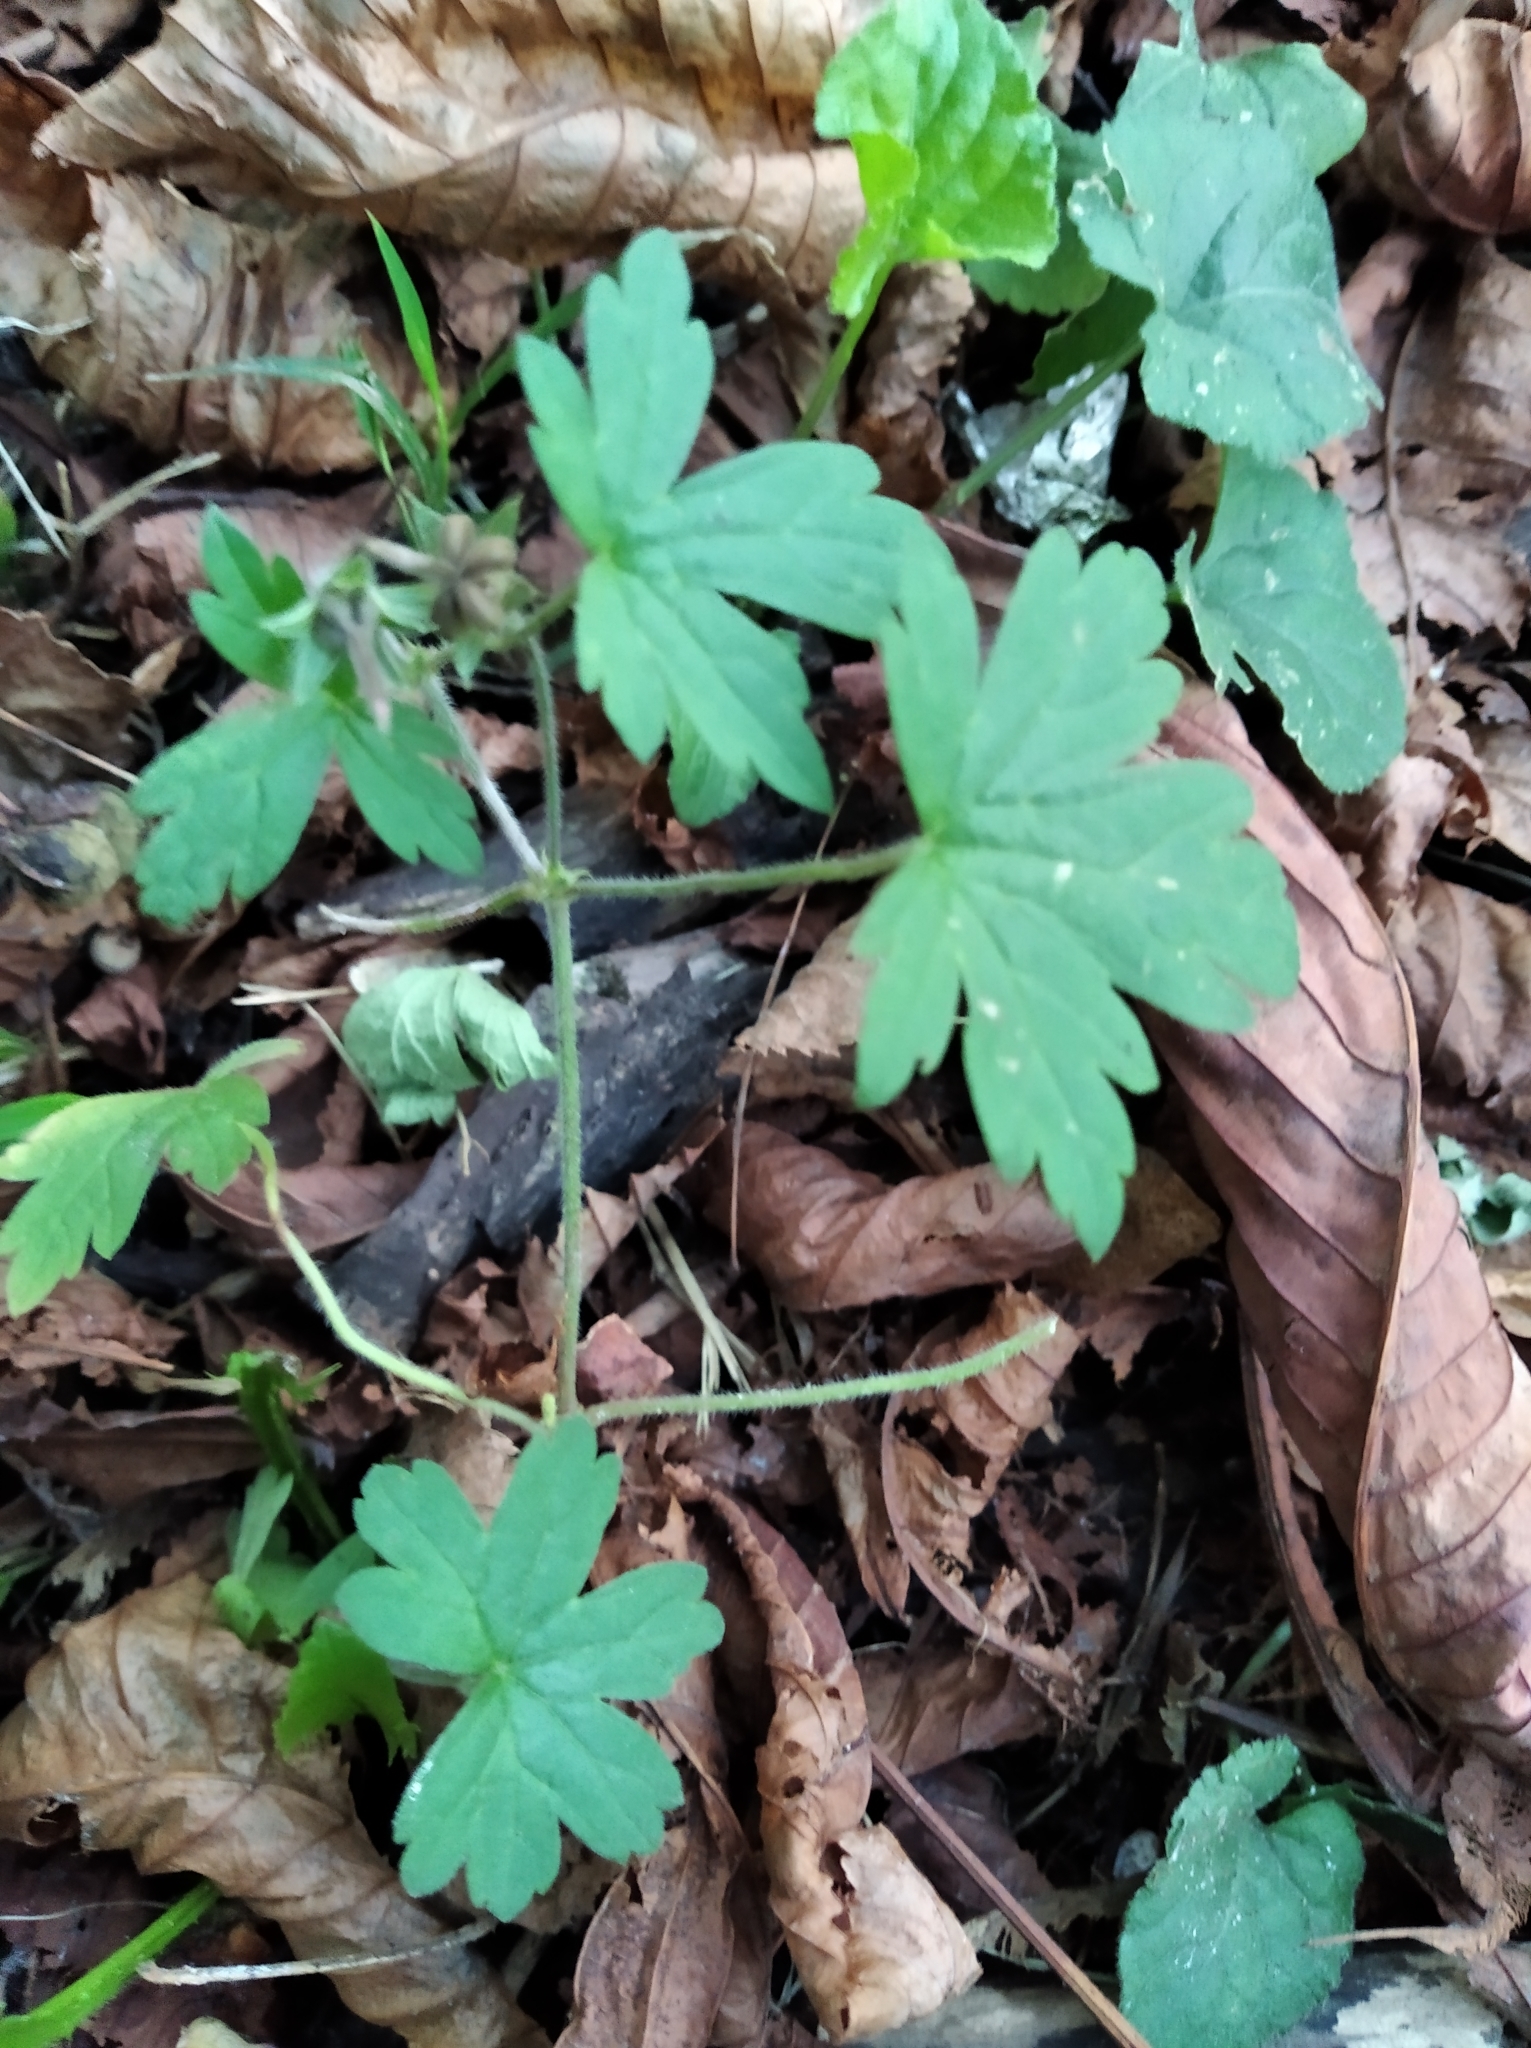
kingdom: Plantae
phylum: Tracheophyta
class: Magnoliopsida
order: Geraniales
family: Geraniaceae
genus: Geranium
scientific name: Geranium sibiricum
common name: Siberian crane's-bill
